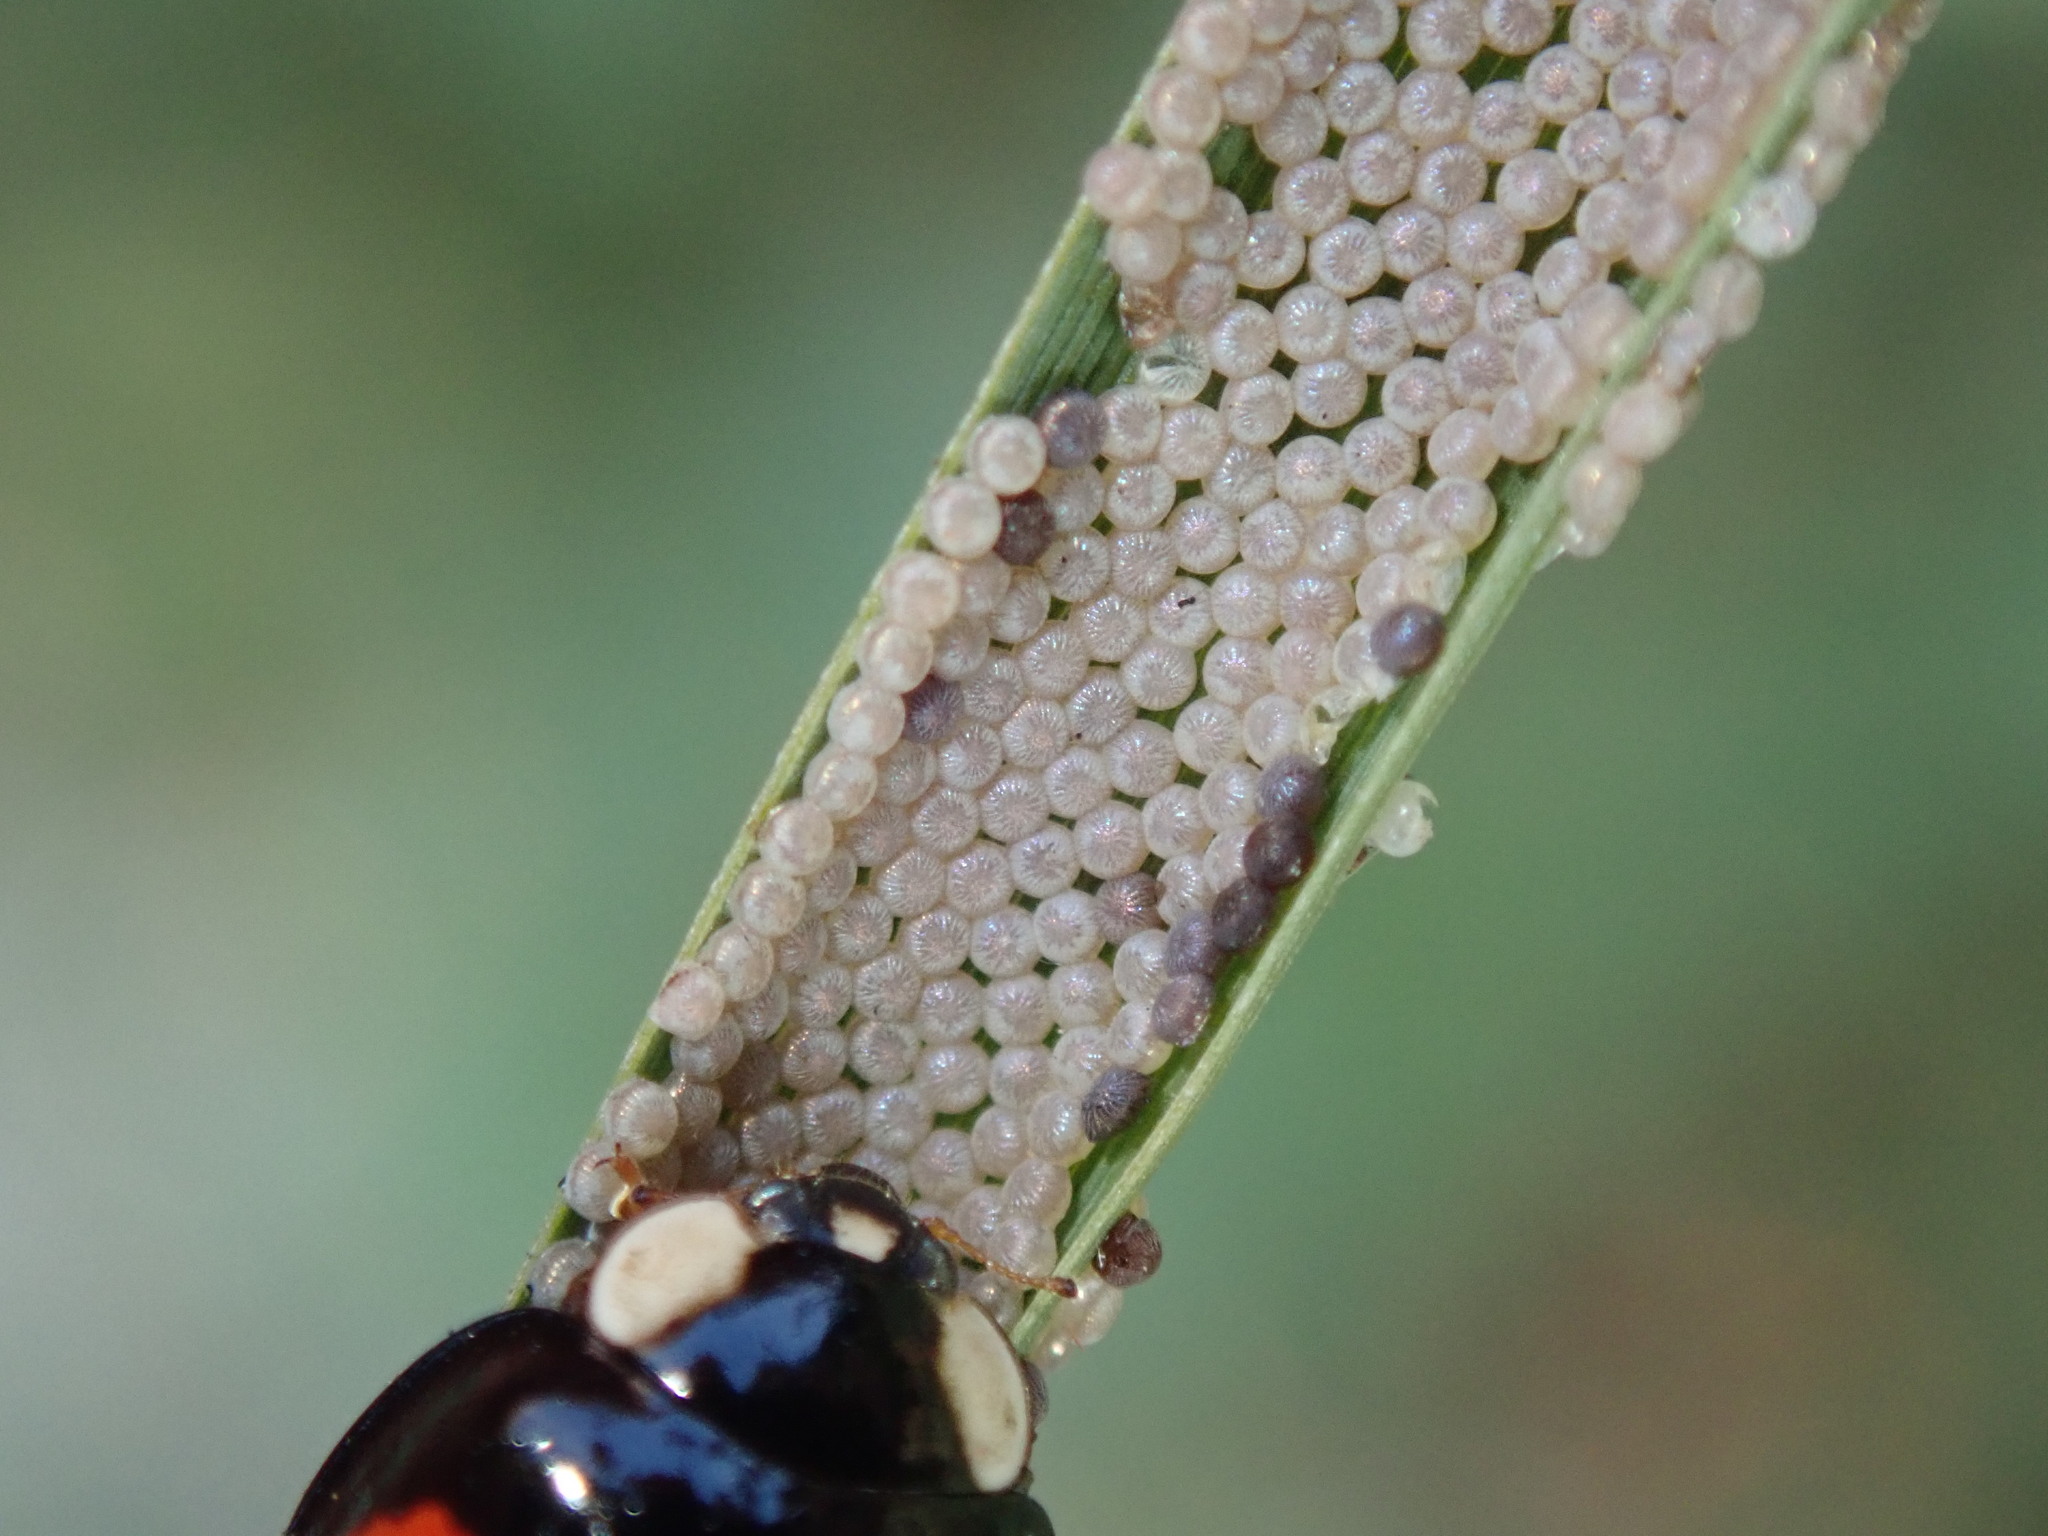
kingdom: Animalia
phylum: Arthropoda
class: Insecta
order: Coleoptera
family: Coccinellidae
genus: Harmonia
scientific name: Harmonia axyridis
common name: Harlequin ladybird
